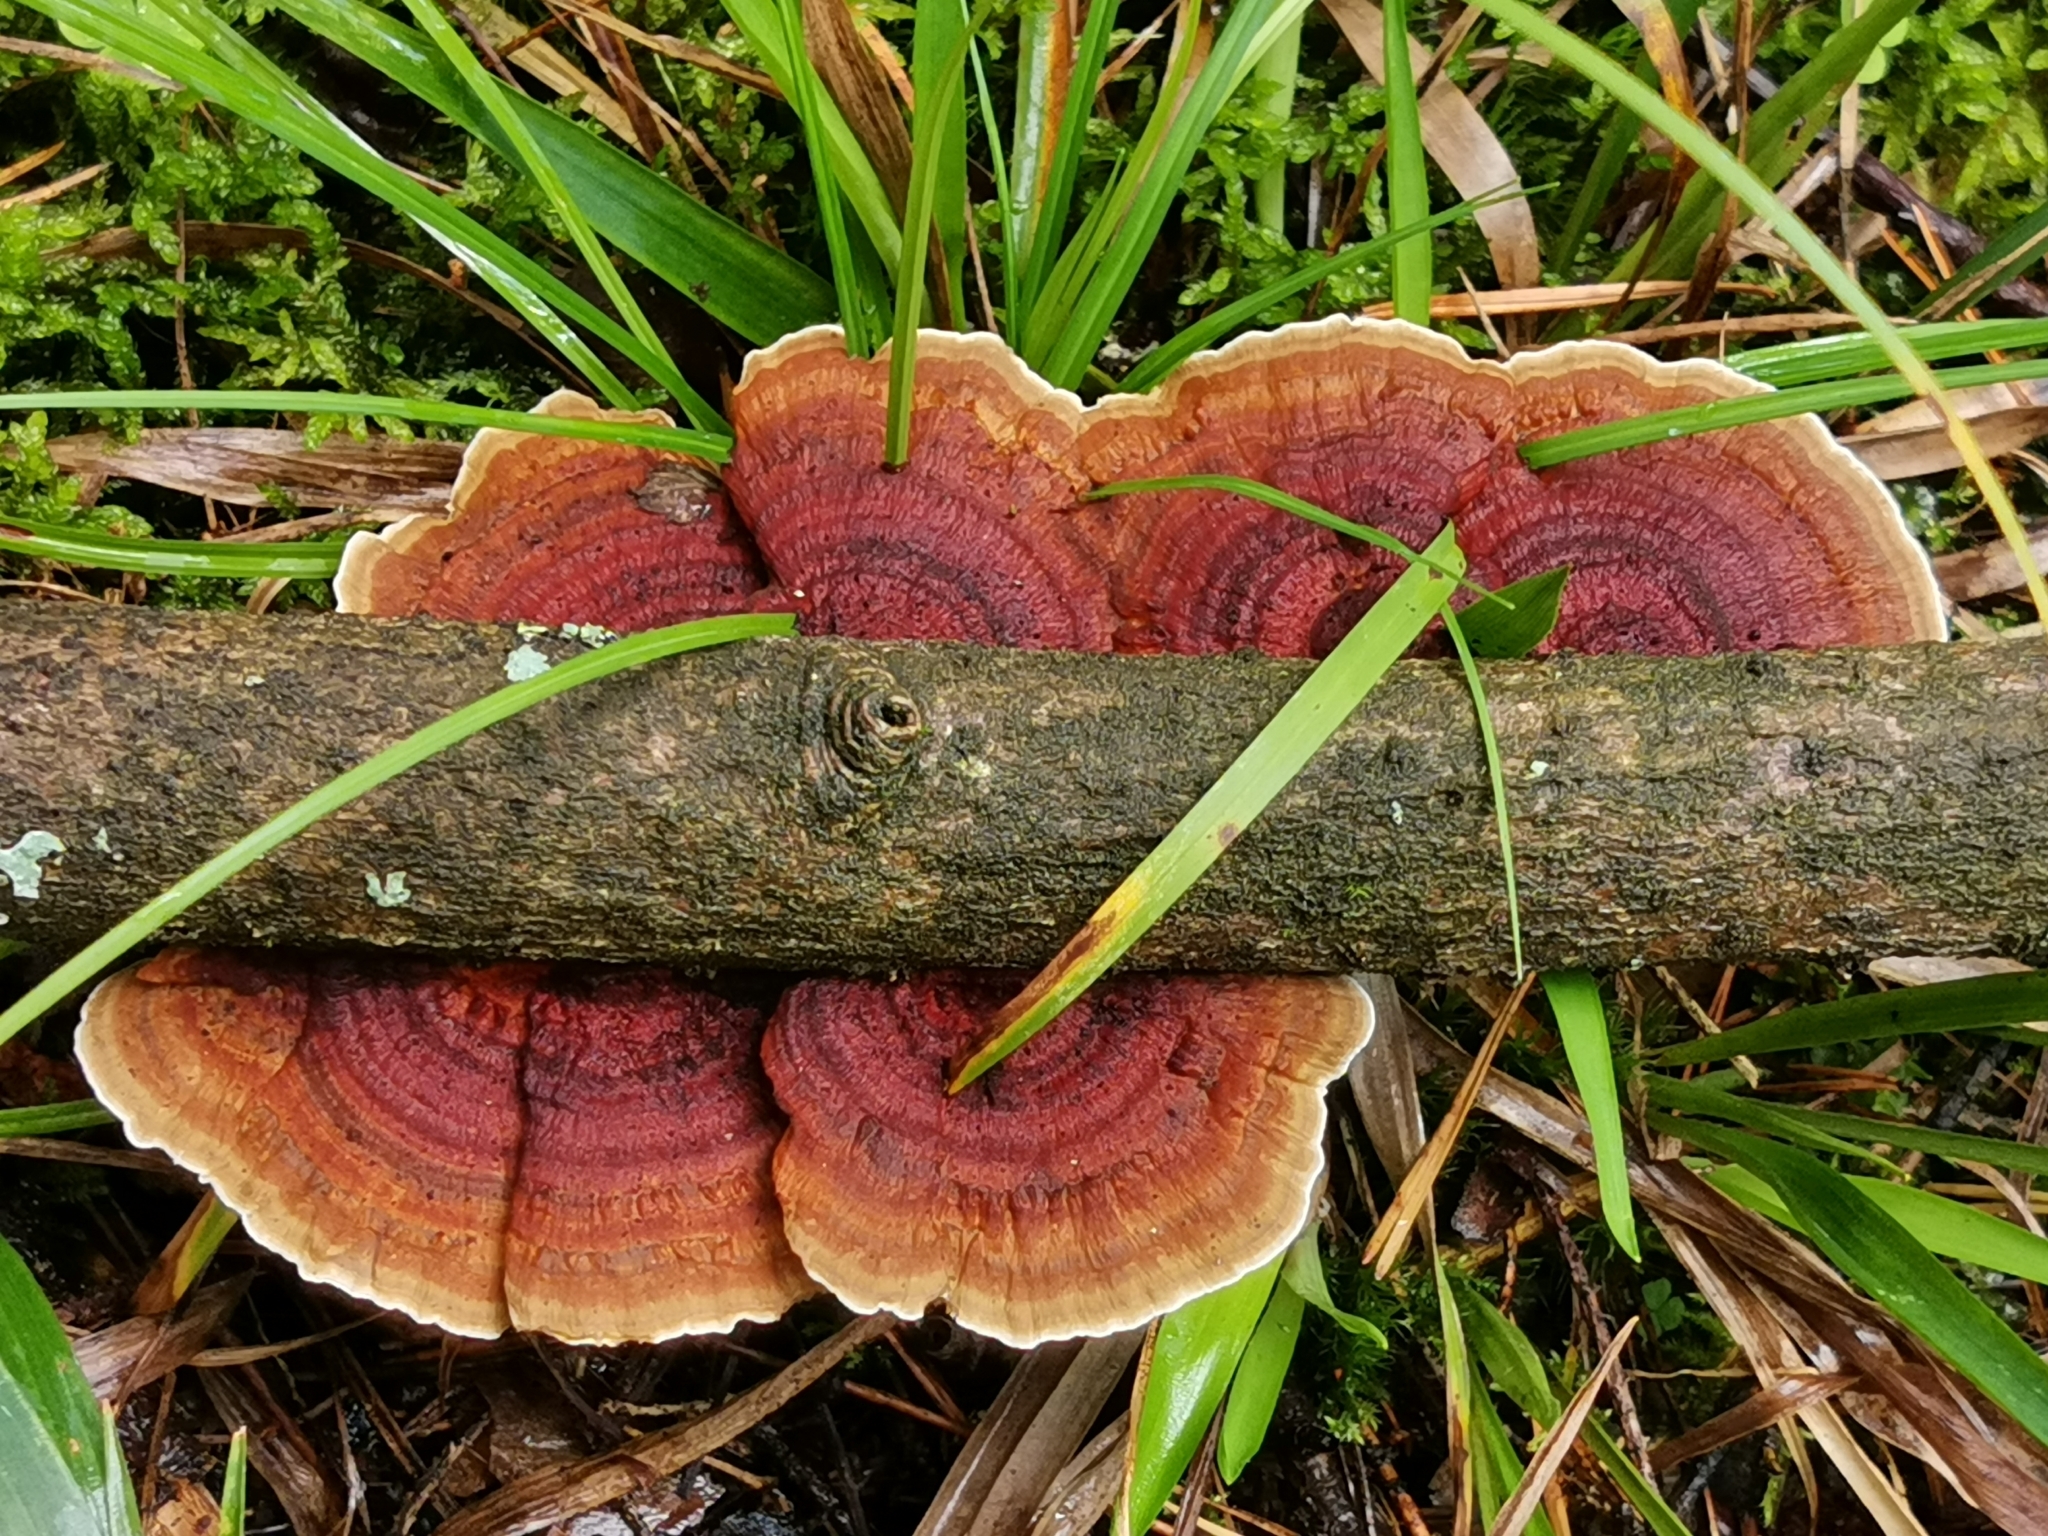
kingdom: Fungi
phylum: Basidiomycota
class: Agaricomycetes
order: Polyporales
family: Polyporaceae
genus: Daedaleopsis
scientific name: Daedaleopsis tricolor
